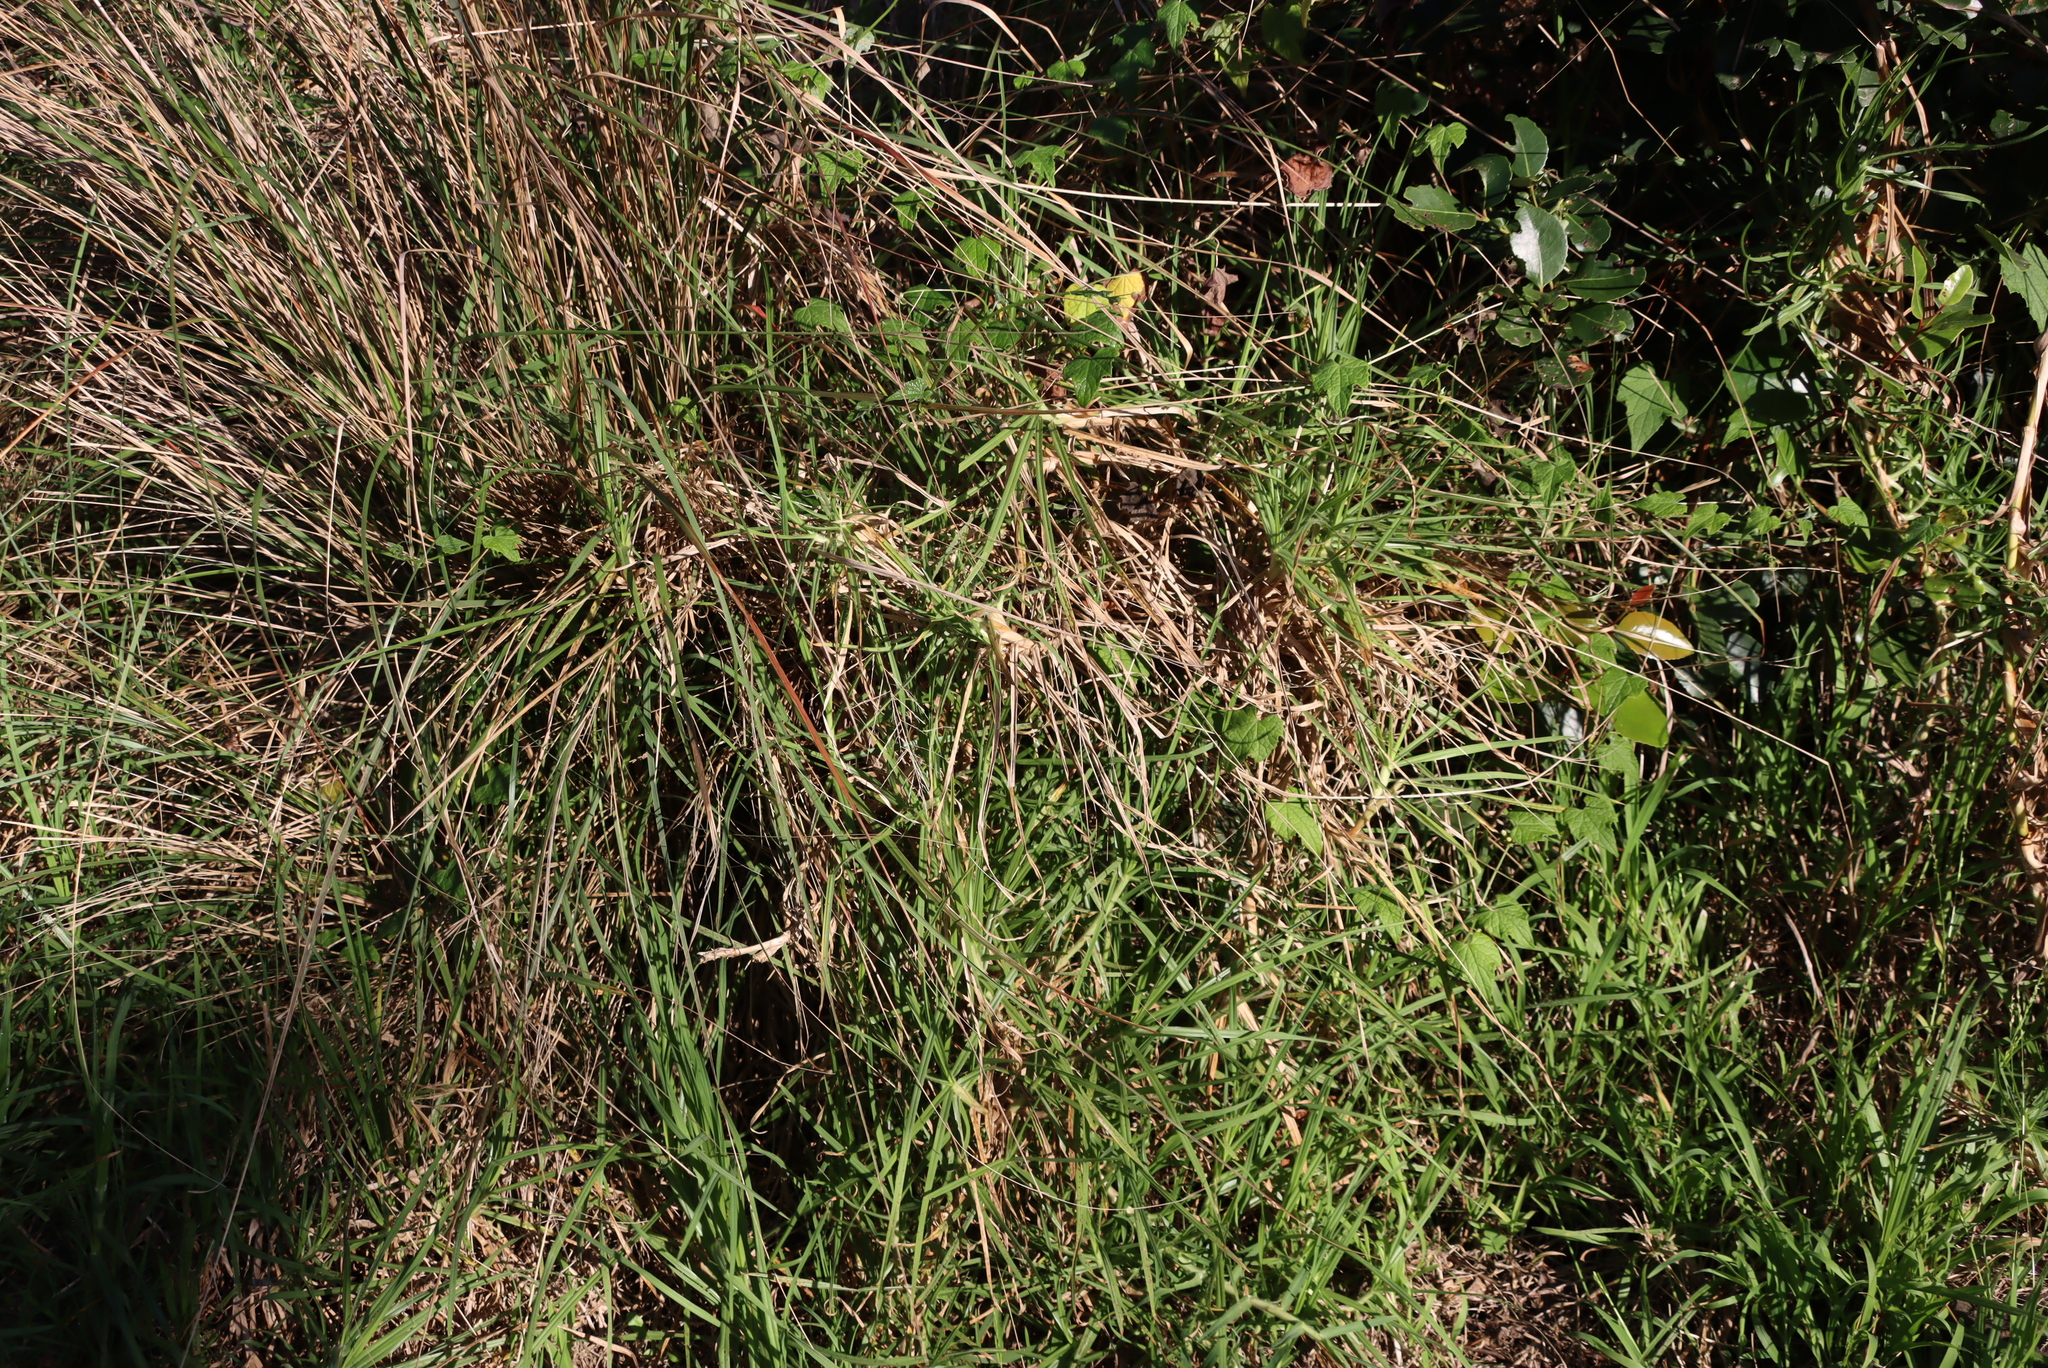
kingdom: Plantae
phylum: Tracheophyta
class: Liliopsida
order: Poales
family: Poaceae
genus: Cenchrus
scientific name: Cenchrus clandestinus
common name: Kikuyugrass
